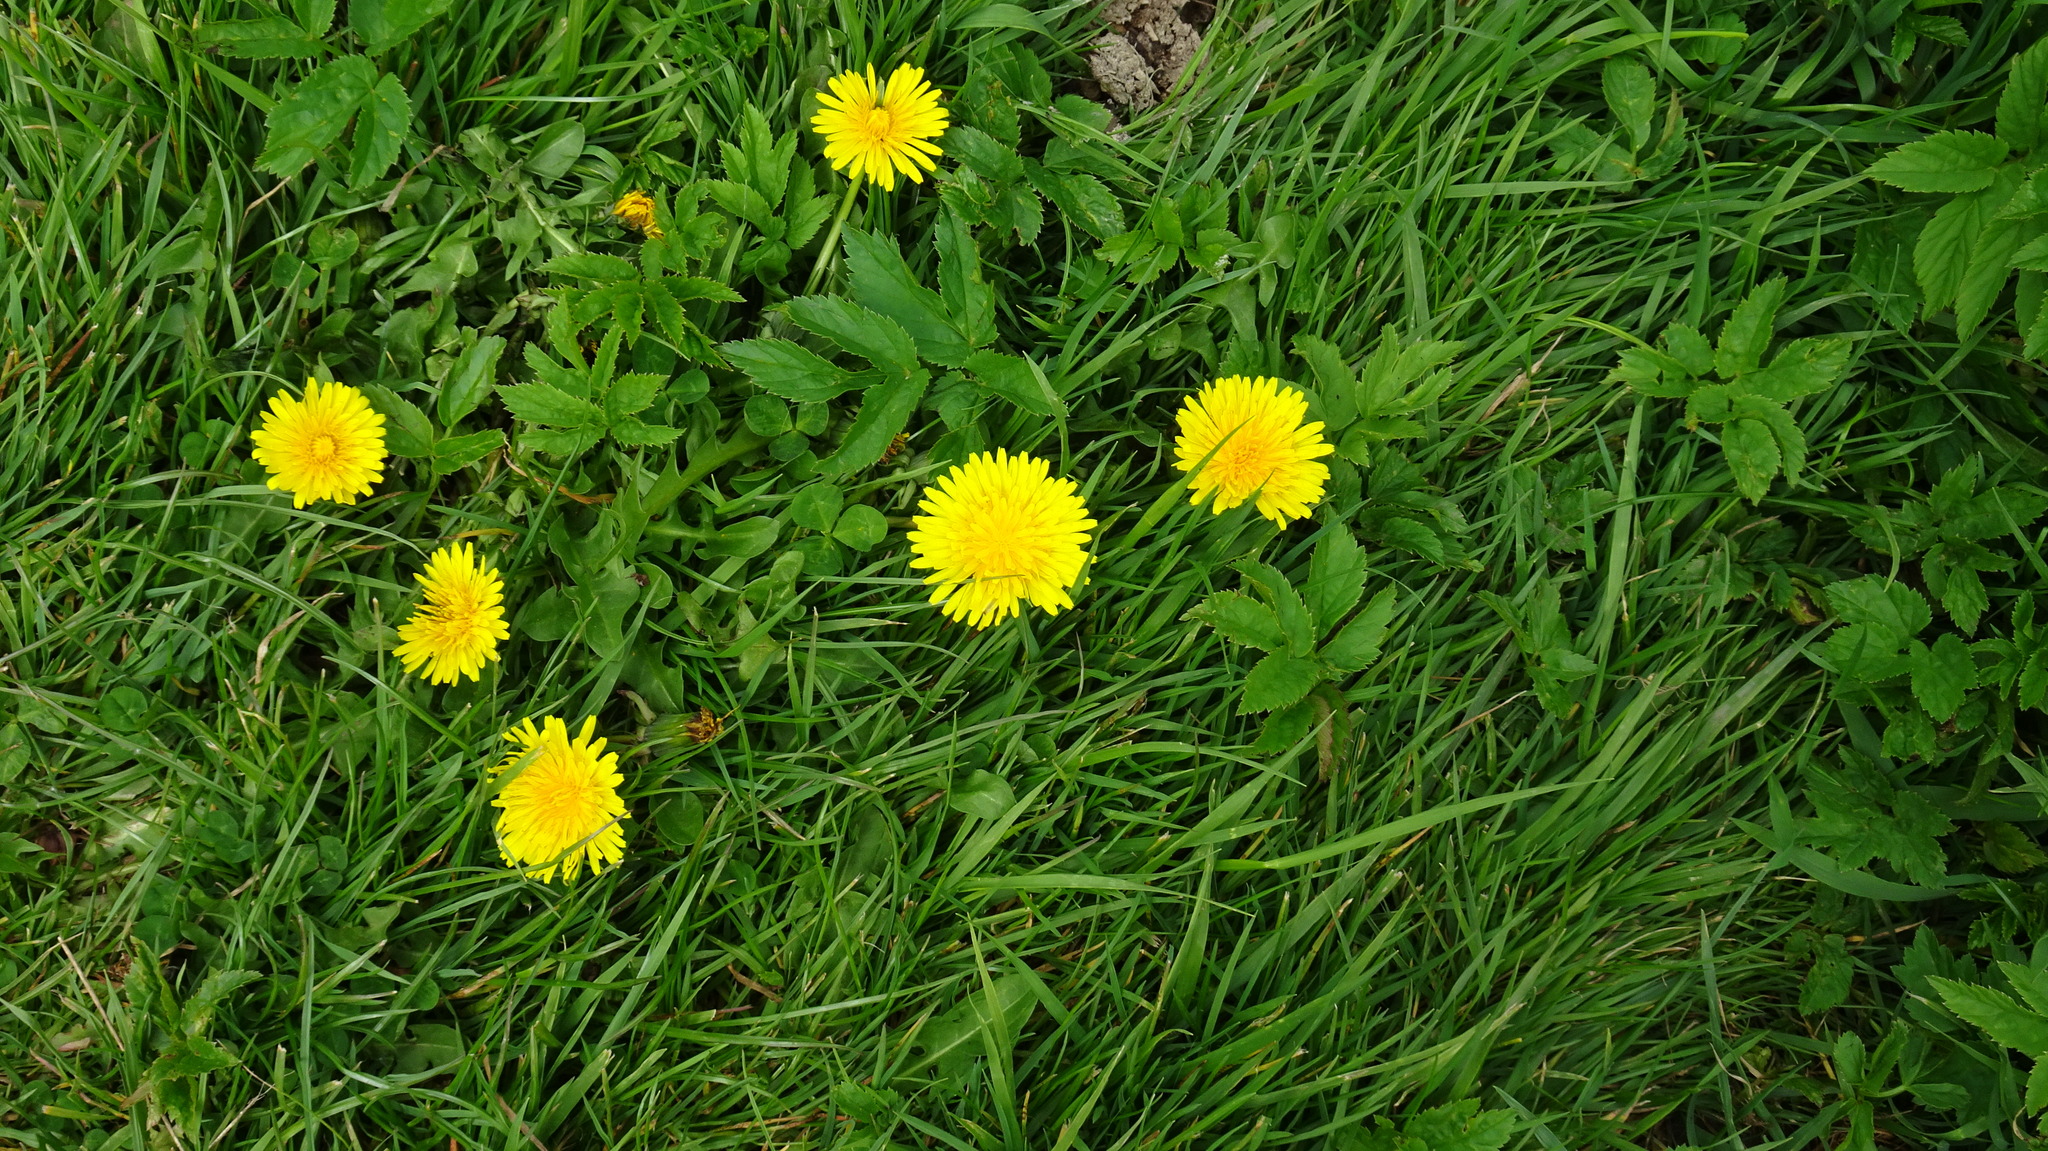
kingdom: Plantae
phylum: Tracheophyta
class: Magnoliopsida
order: Asterales
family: Asteraceae
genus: Taraxacum
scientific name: Taraxacum officinale
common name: Common dandelion
